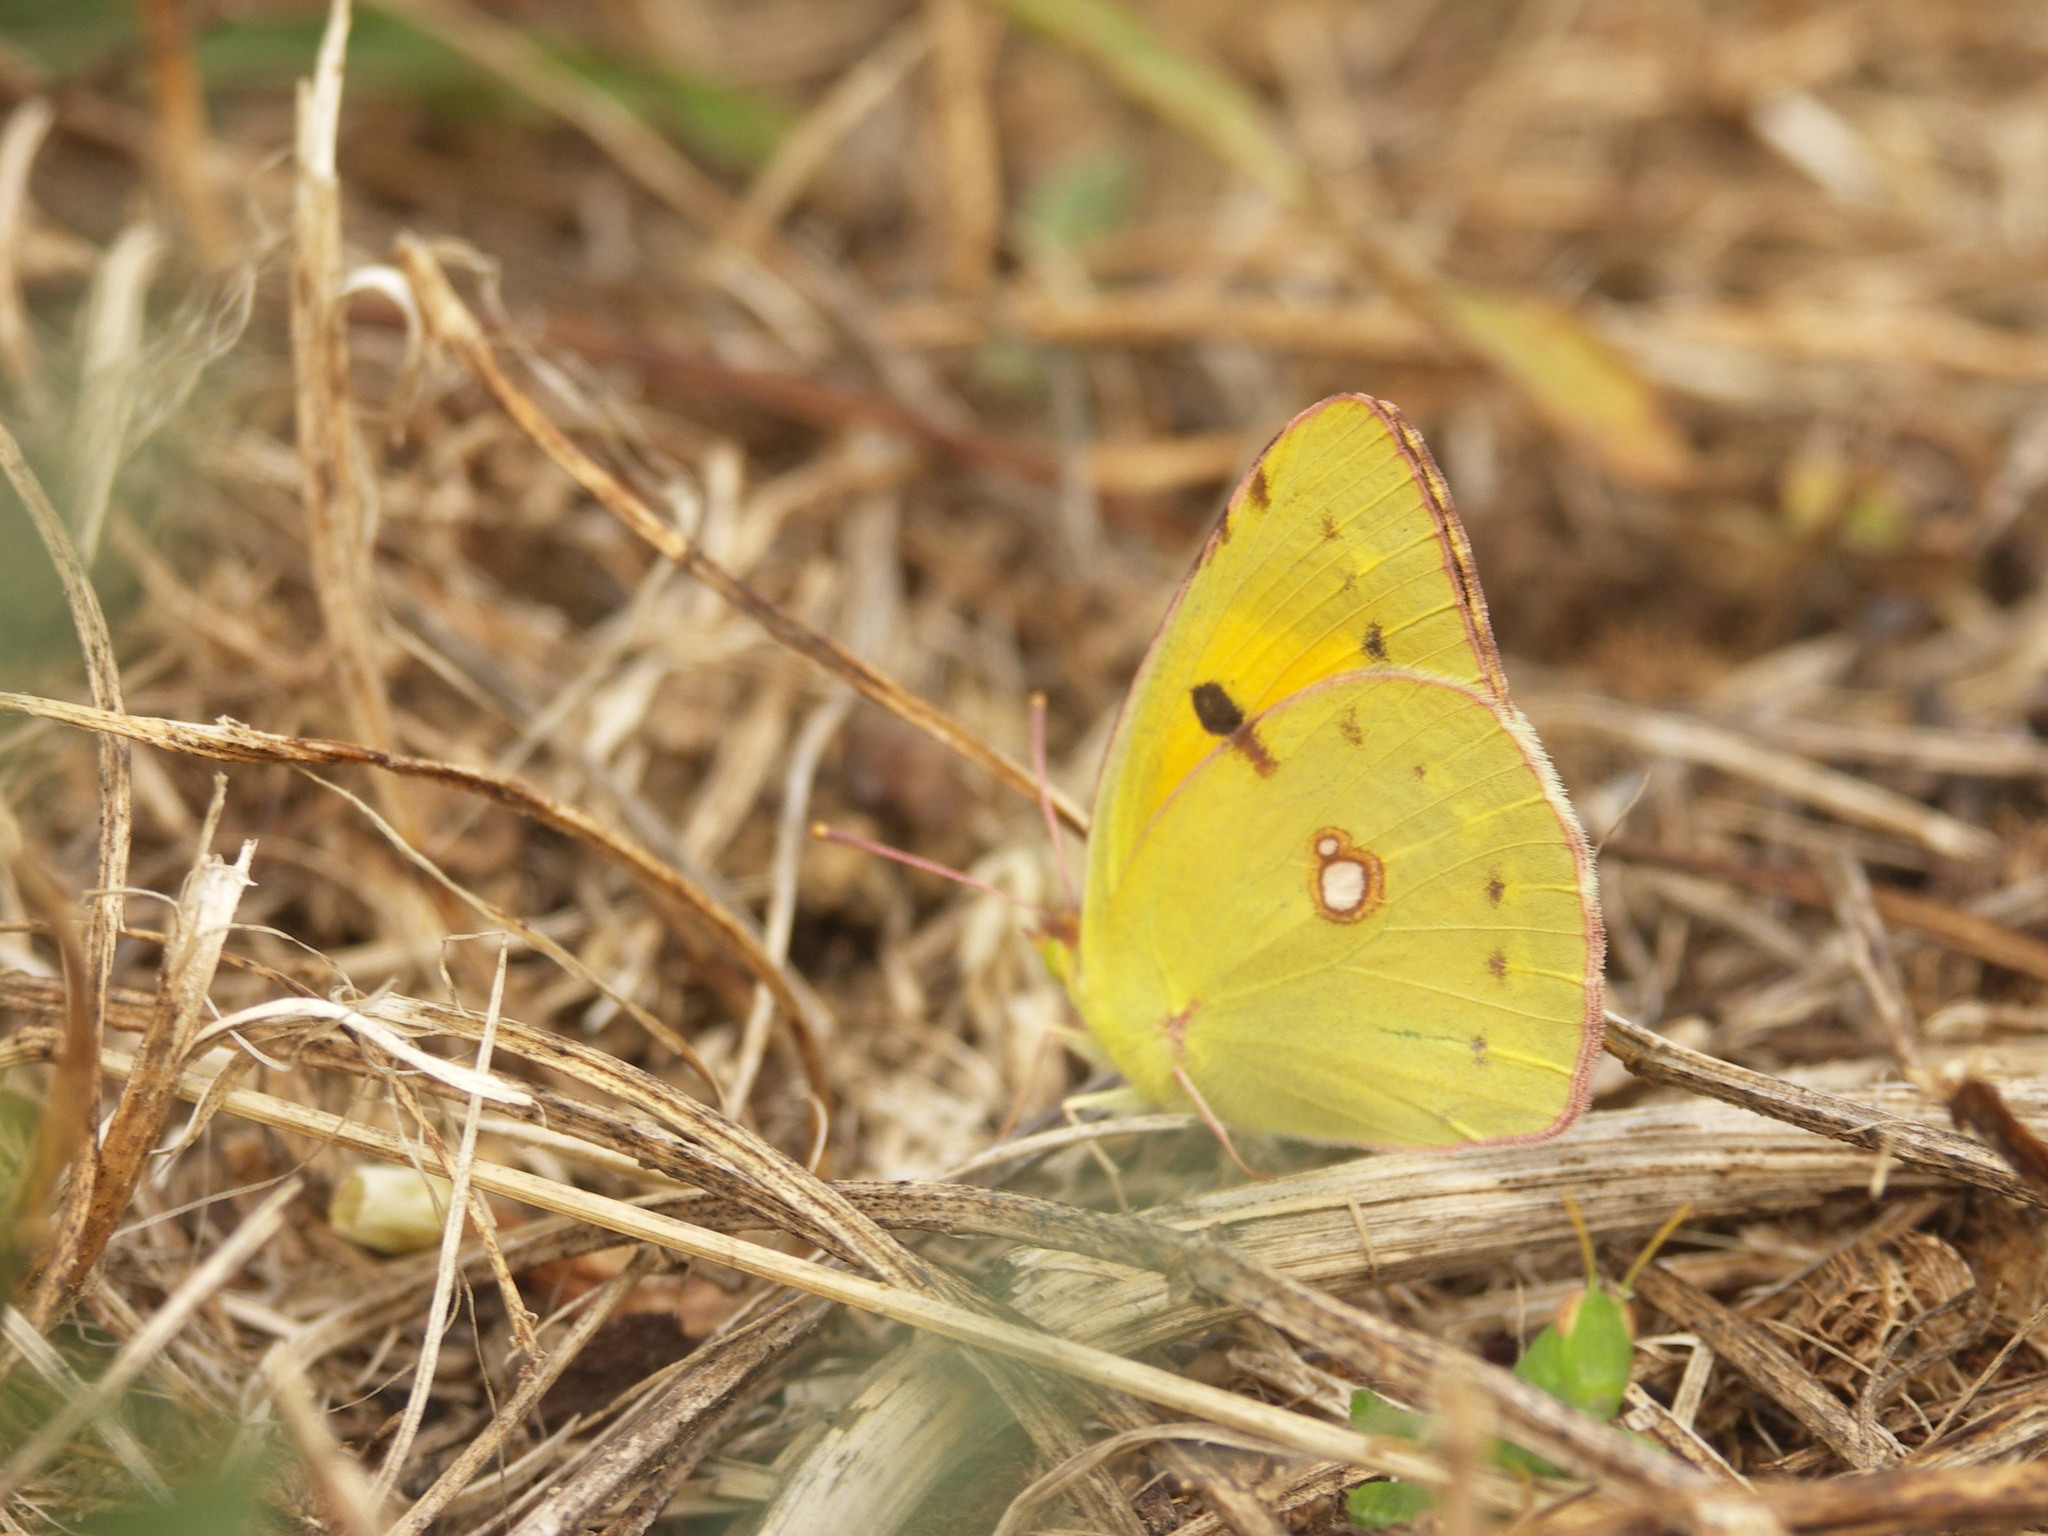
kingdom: Animalia
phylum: Arthropoda
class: Insecta
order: Lepidoptera
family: Pieridae
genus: Colias
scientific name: Colias croceus
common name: Clouded yellow
